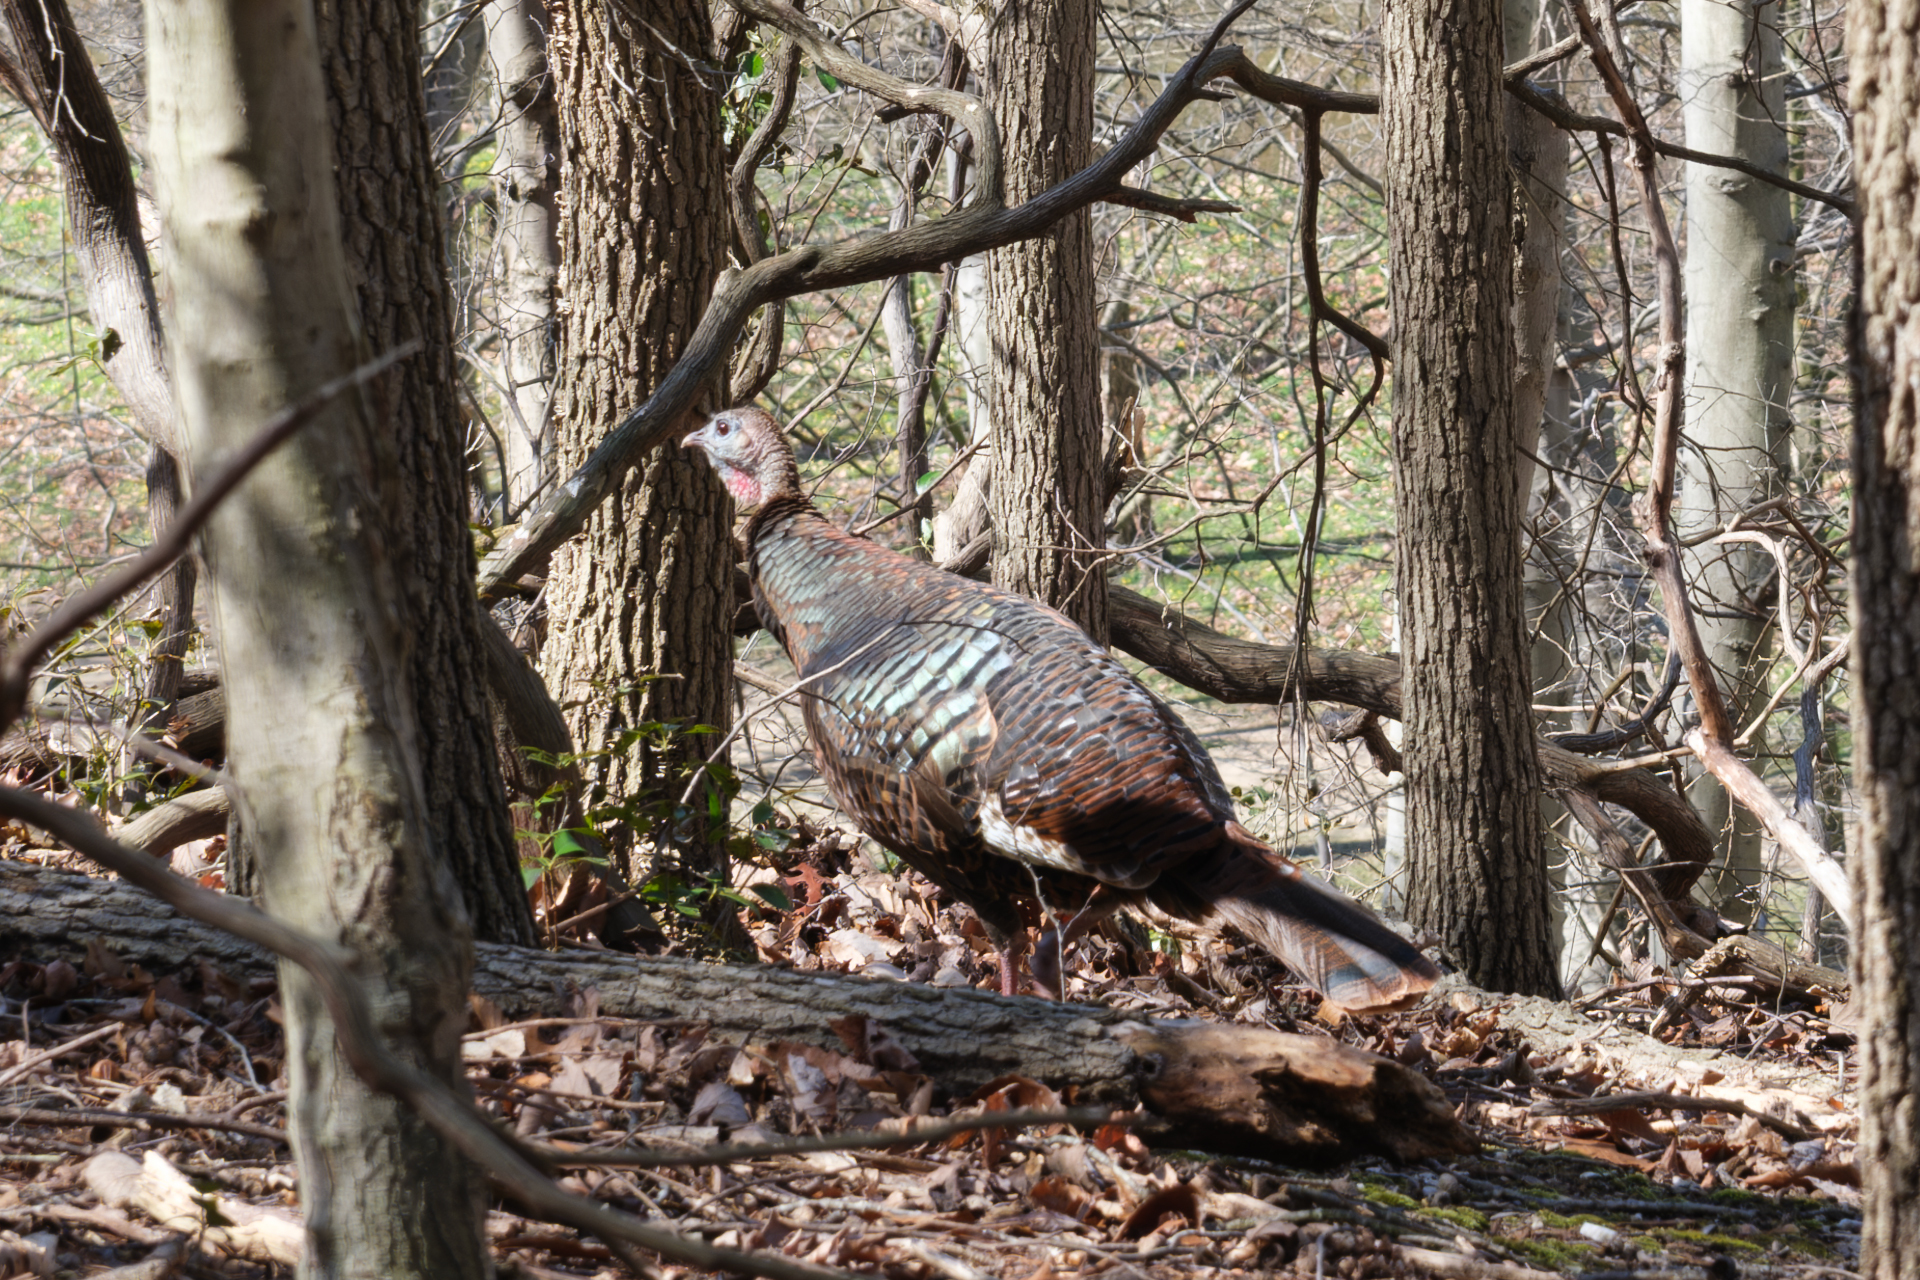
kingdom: Animalia
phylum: Chordata
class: Aves
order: Galliformes
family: Phasianidae
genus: Meleagris
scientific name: Meleagris gallopavo
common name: Wild turkey
